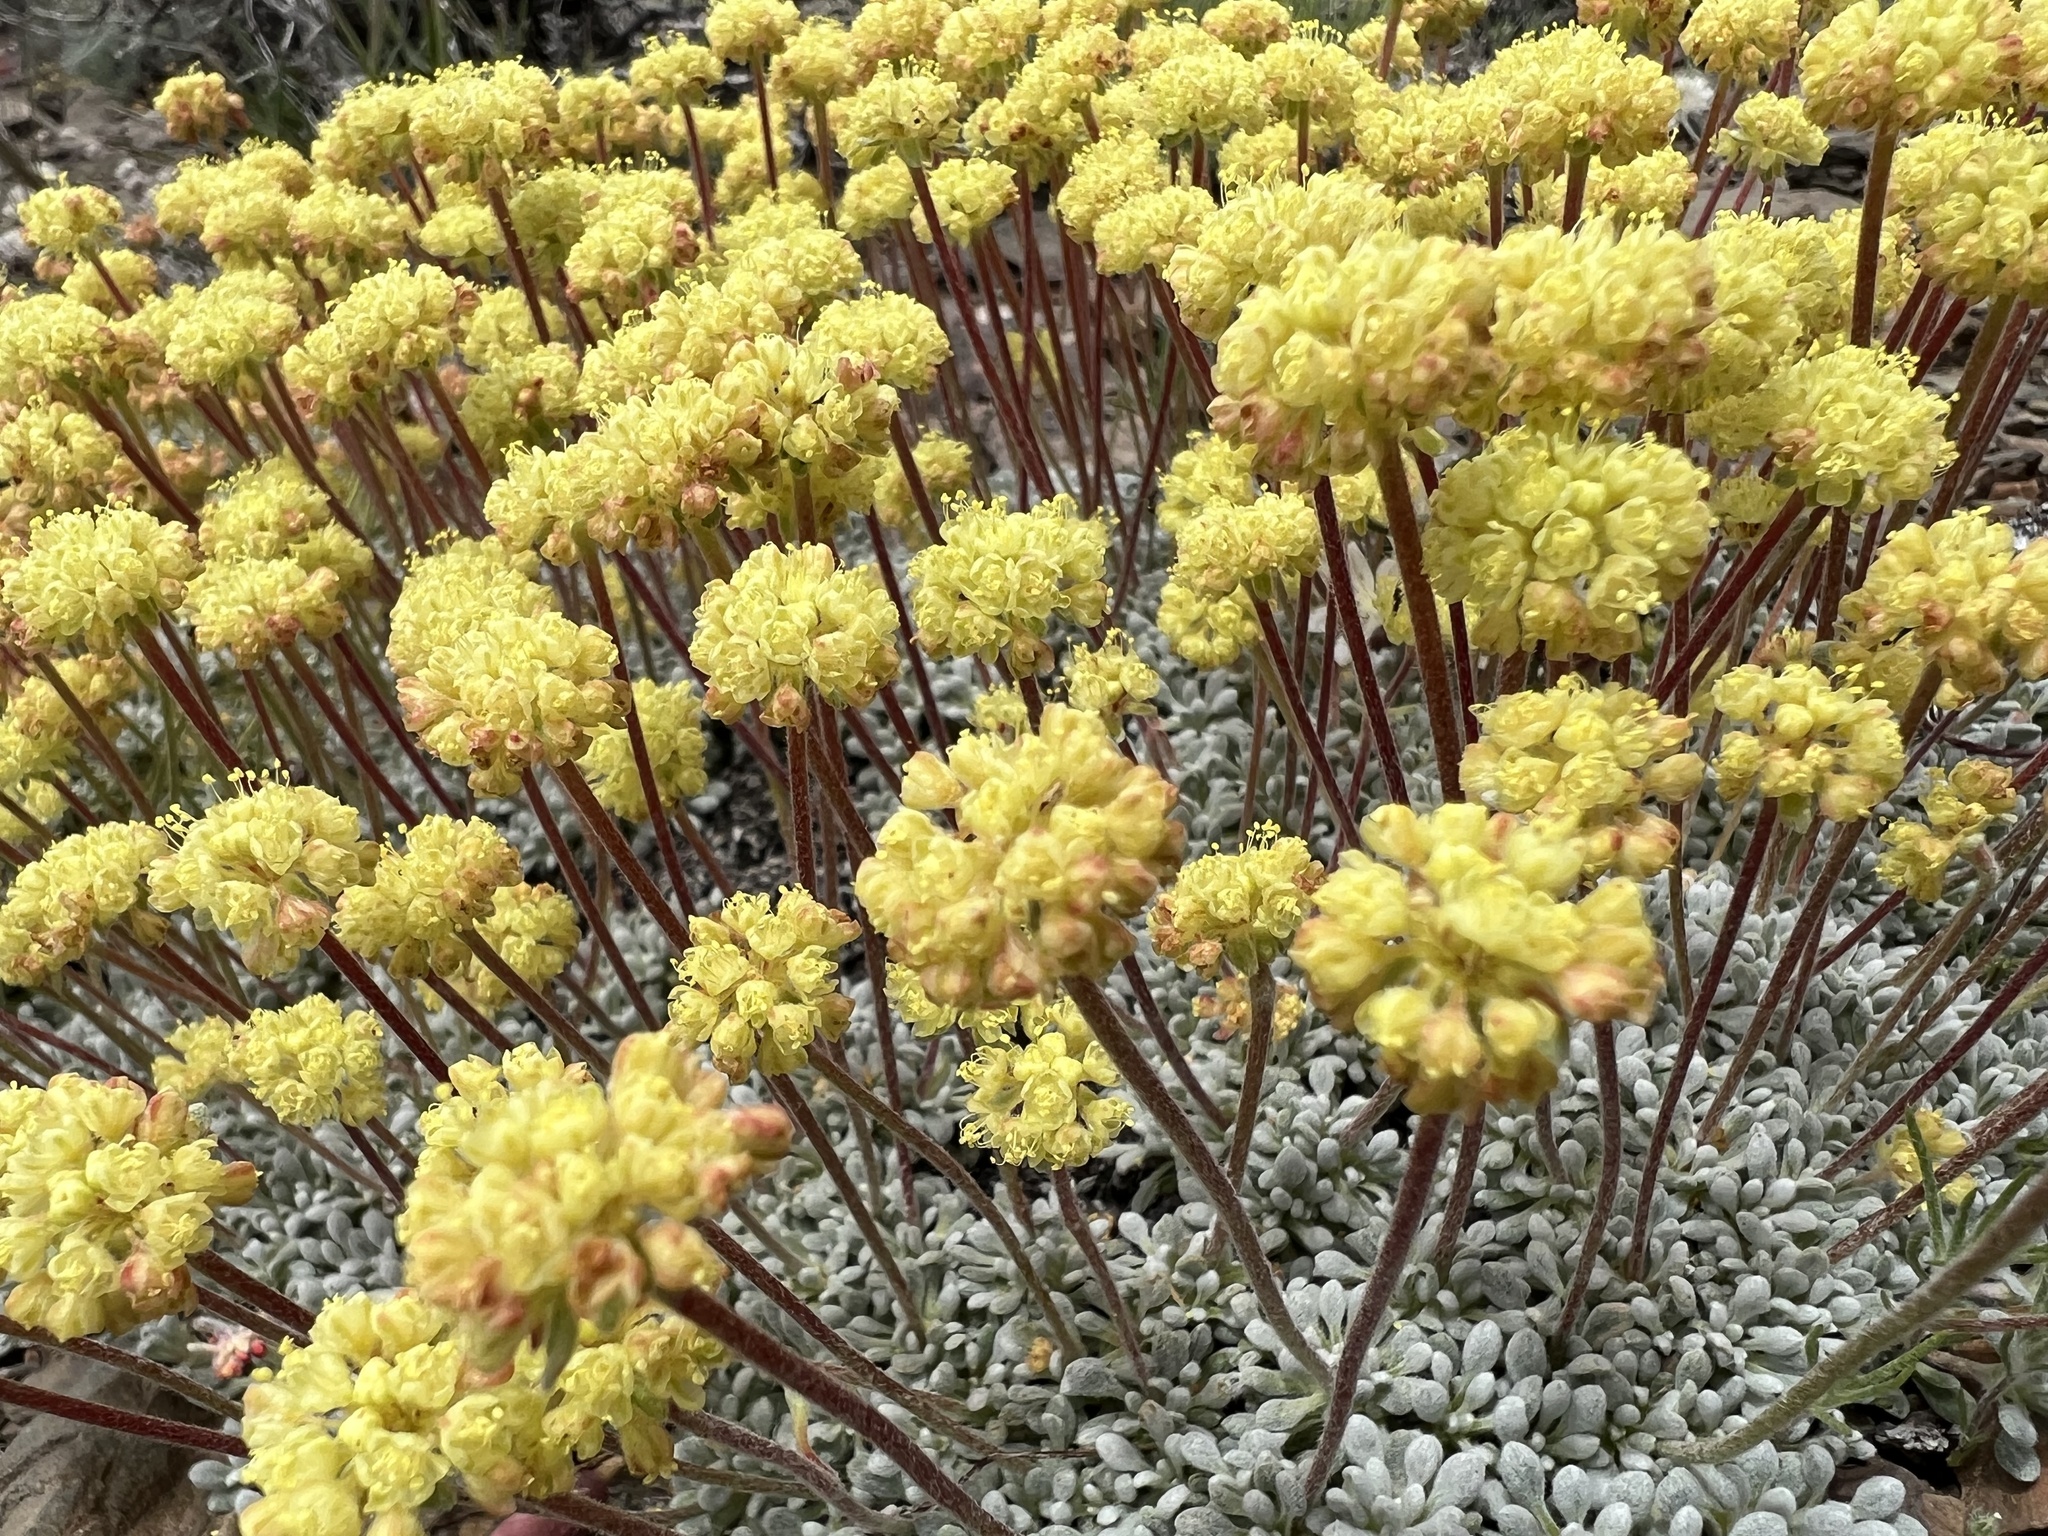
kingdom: Plantae
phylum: Tracheophyta
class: Magnoliopsida
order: Caryophyllales
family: Polygonaceae
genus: Eriogonum
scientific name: Eriogonum caespitosum
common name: Matted wild buckwheat
